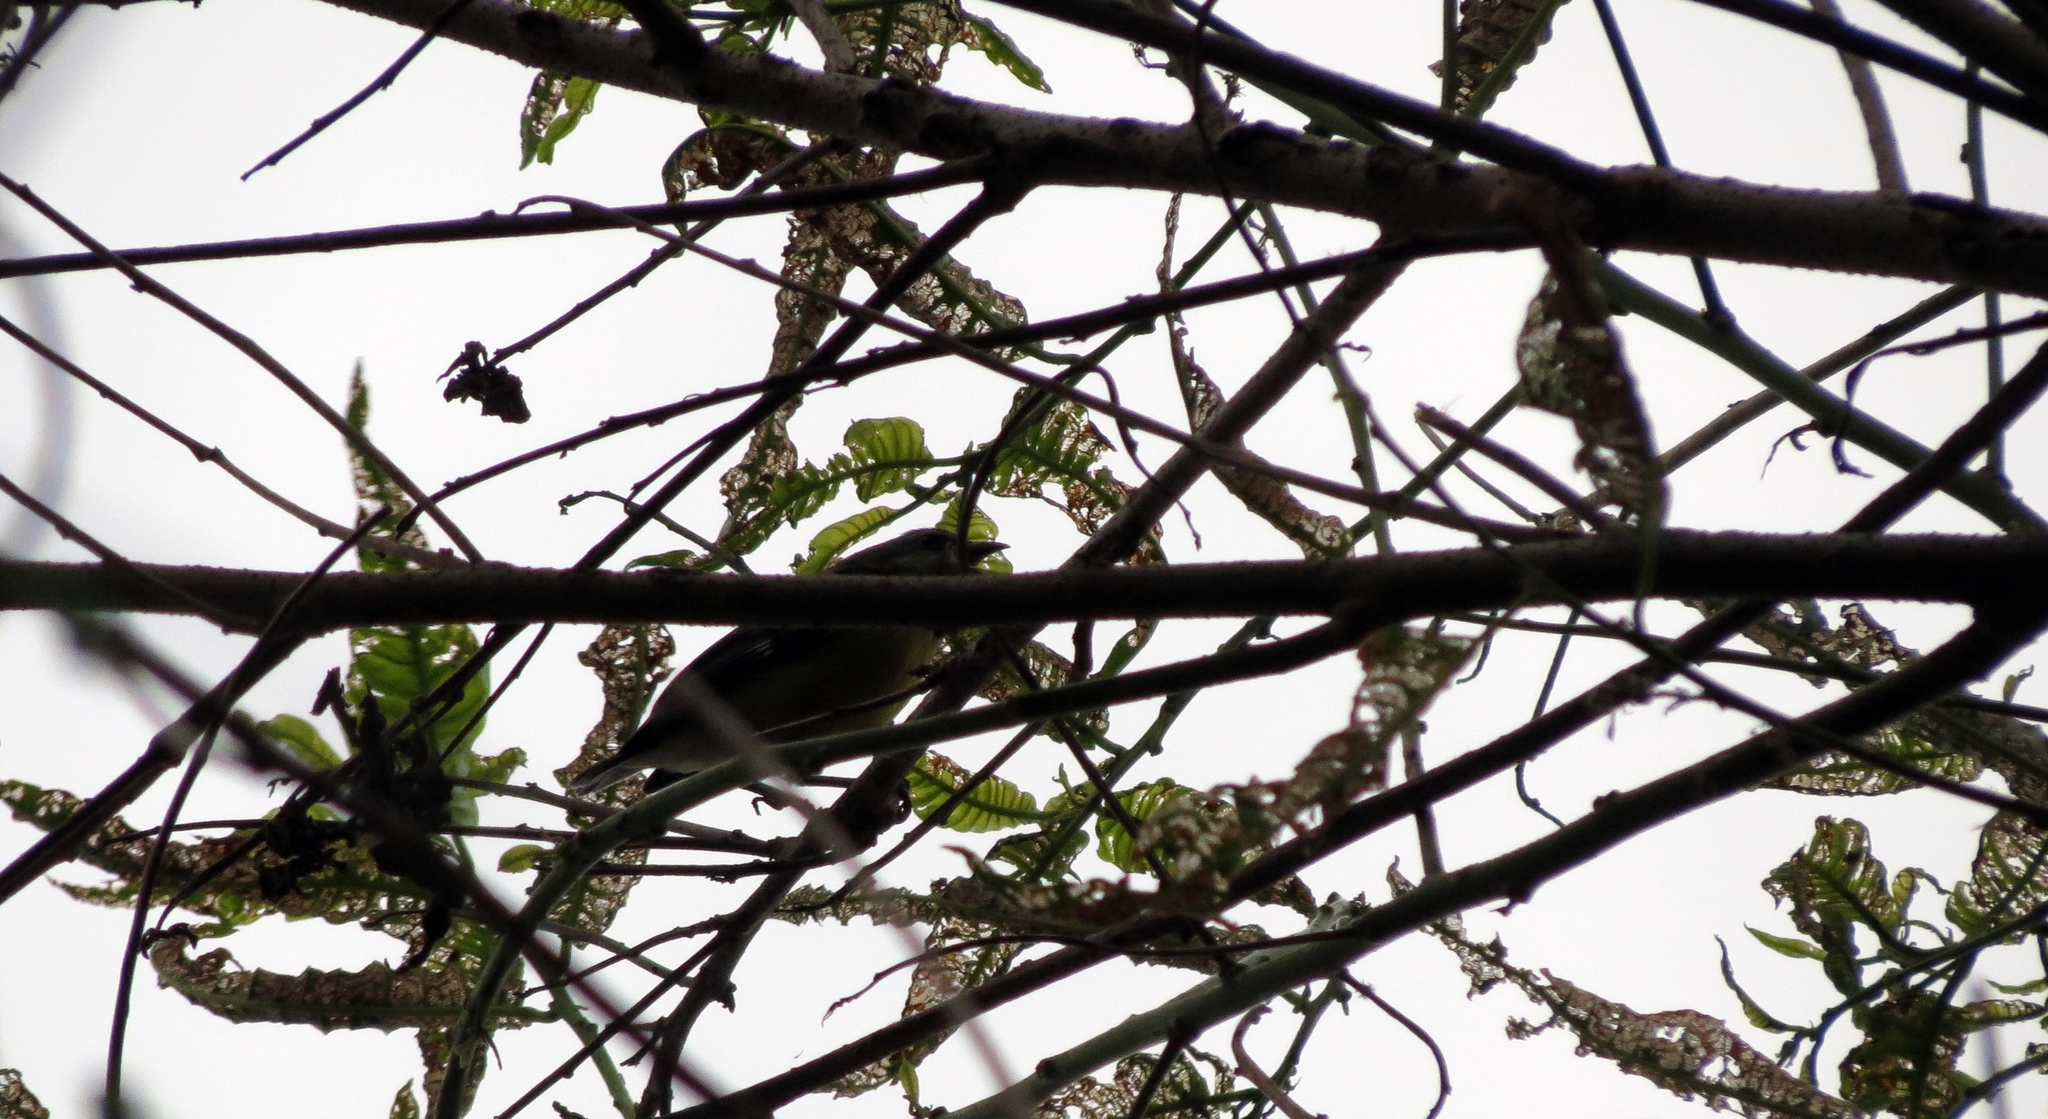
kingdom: Animalia
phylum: Chordata
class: Aves
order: Passeriformes
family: Thraupidae
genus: Coereba
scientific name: Coereba flaveola
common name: Bananaquit
